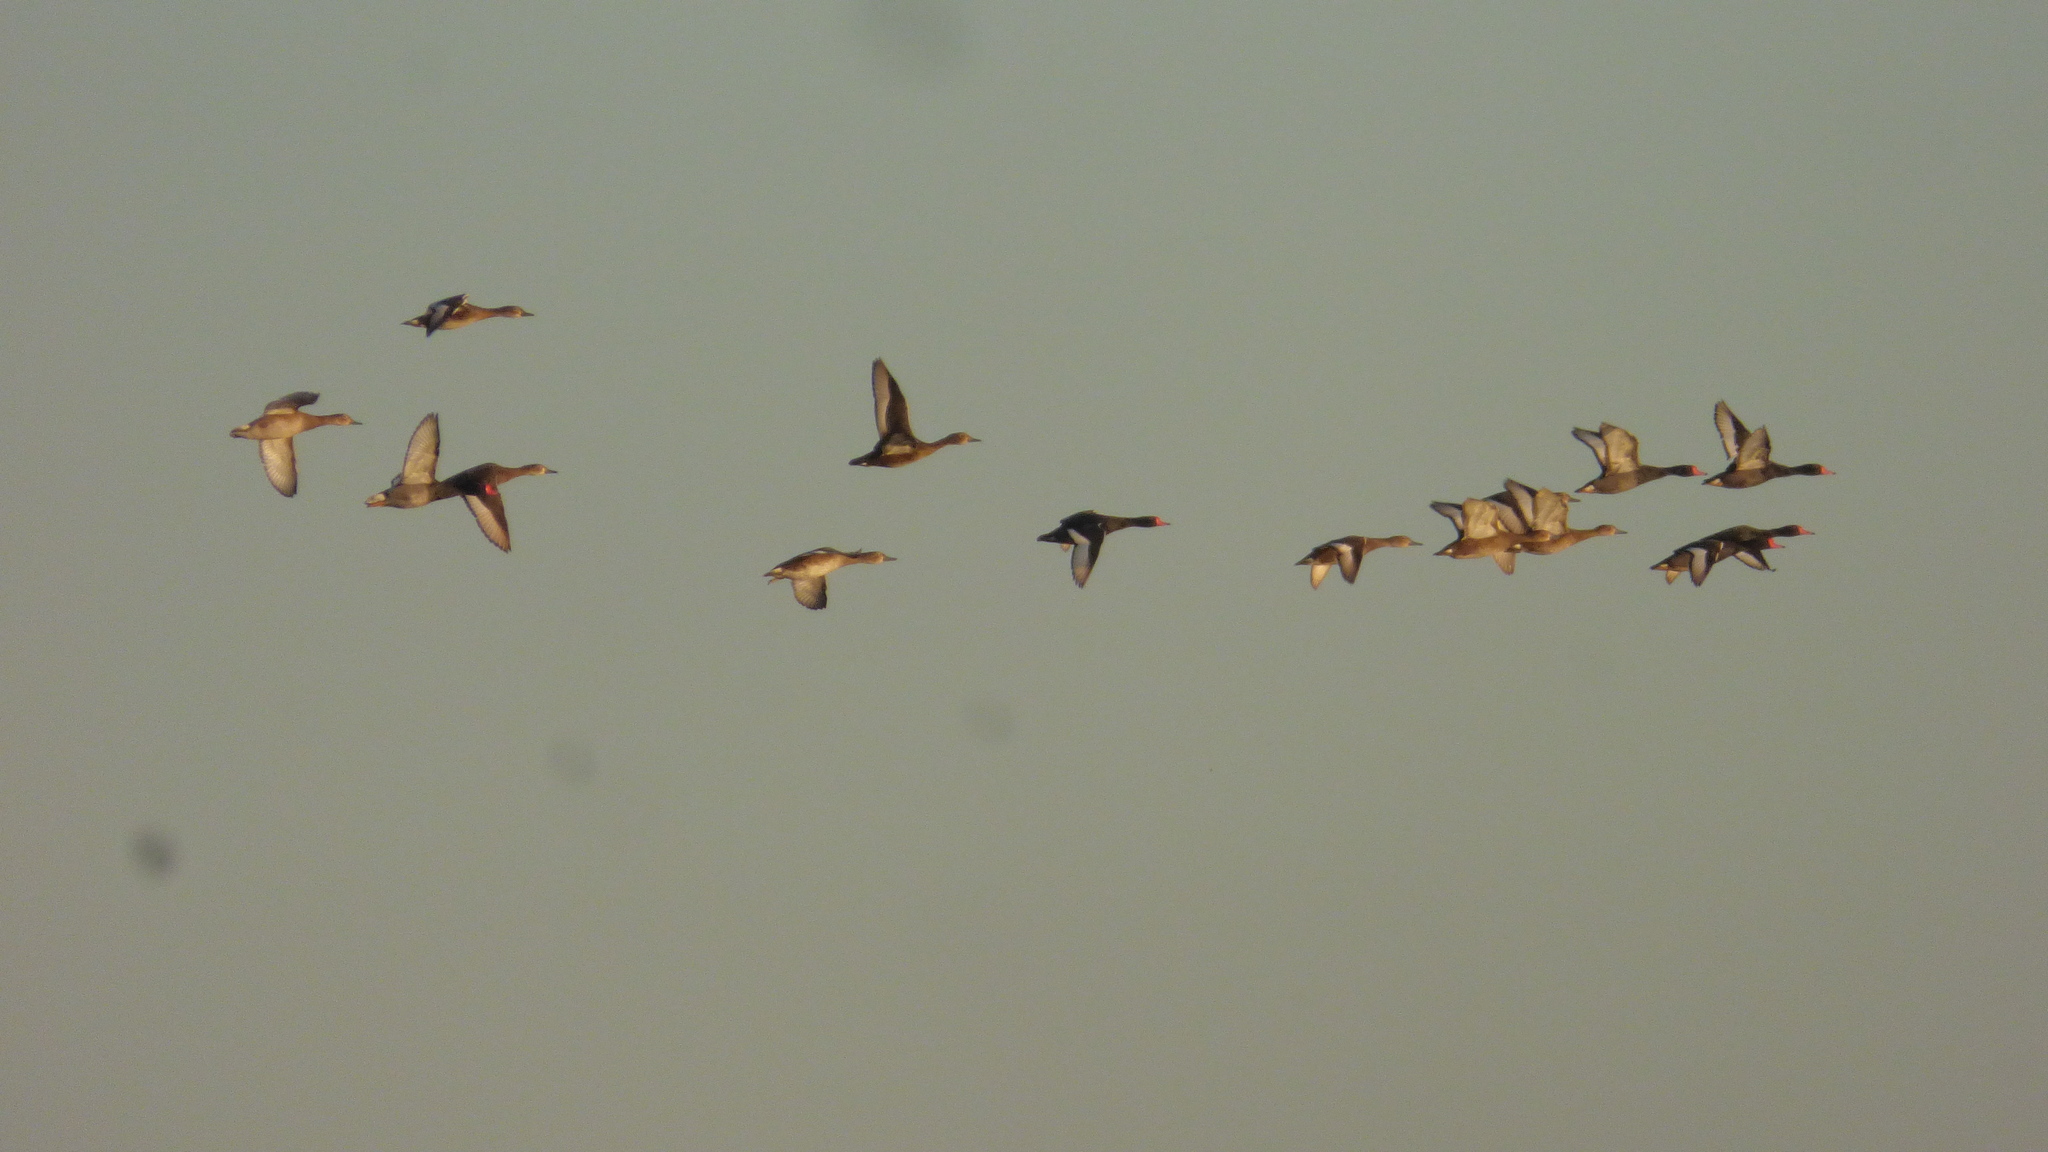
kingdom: Animalia
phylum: Chordata
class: Aves
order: Anseriformes
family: Anatidae
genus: Netta
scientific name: Netta peposaca
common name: Rosy-billed pochard
